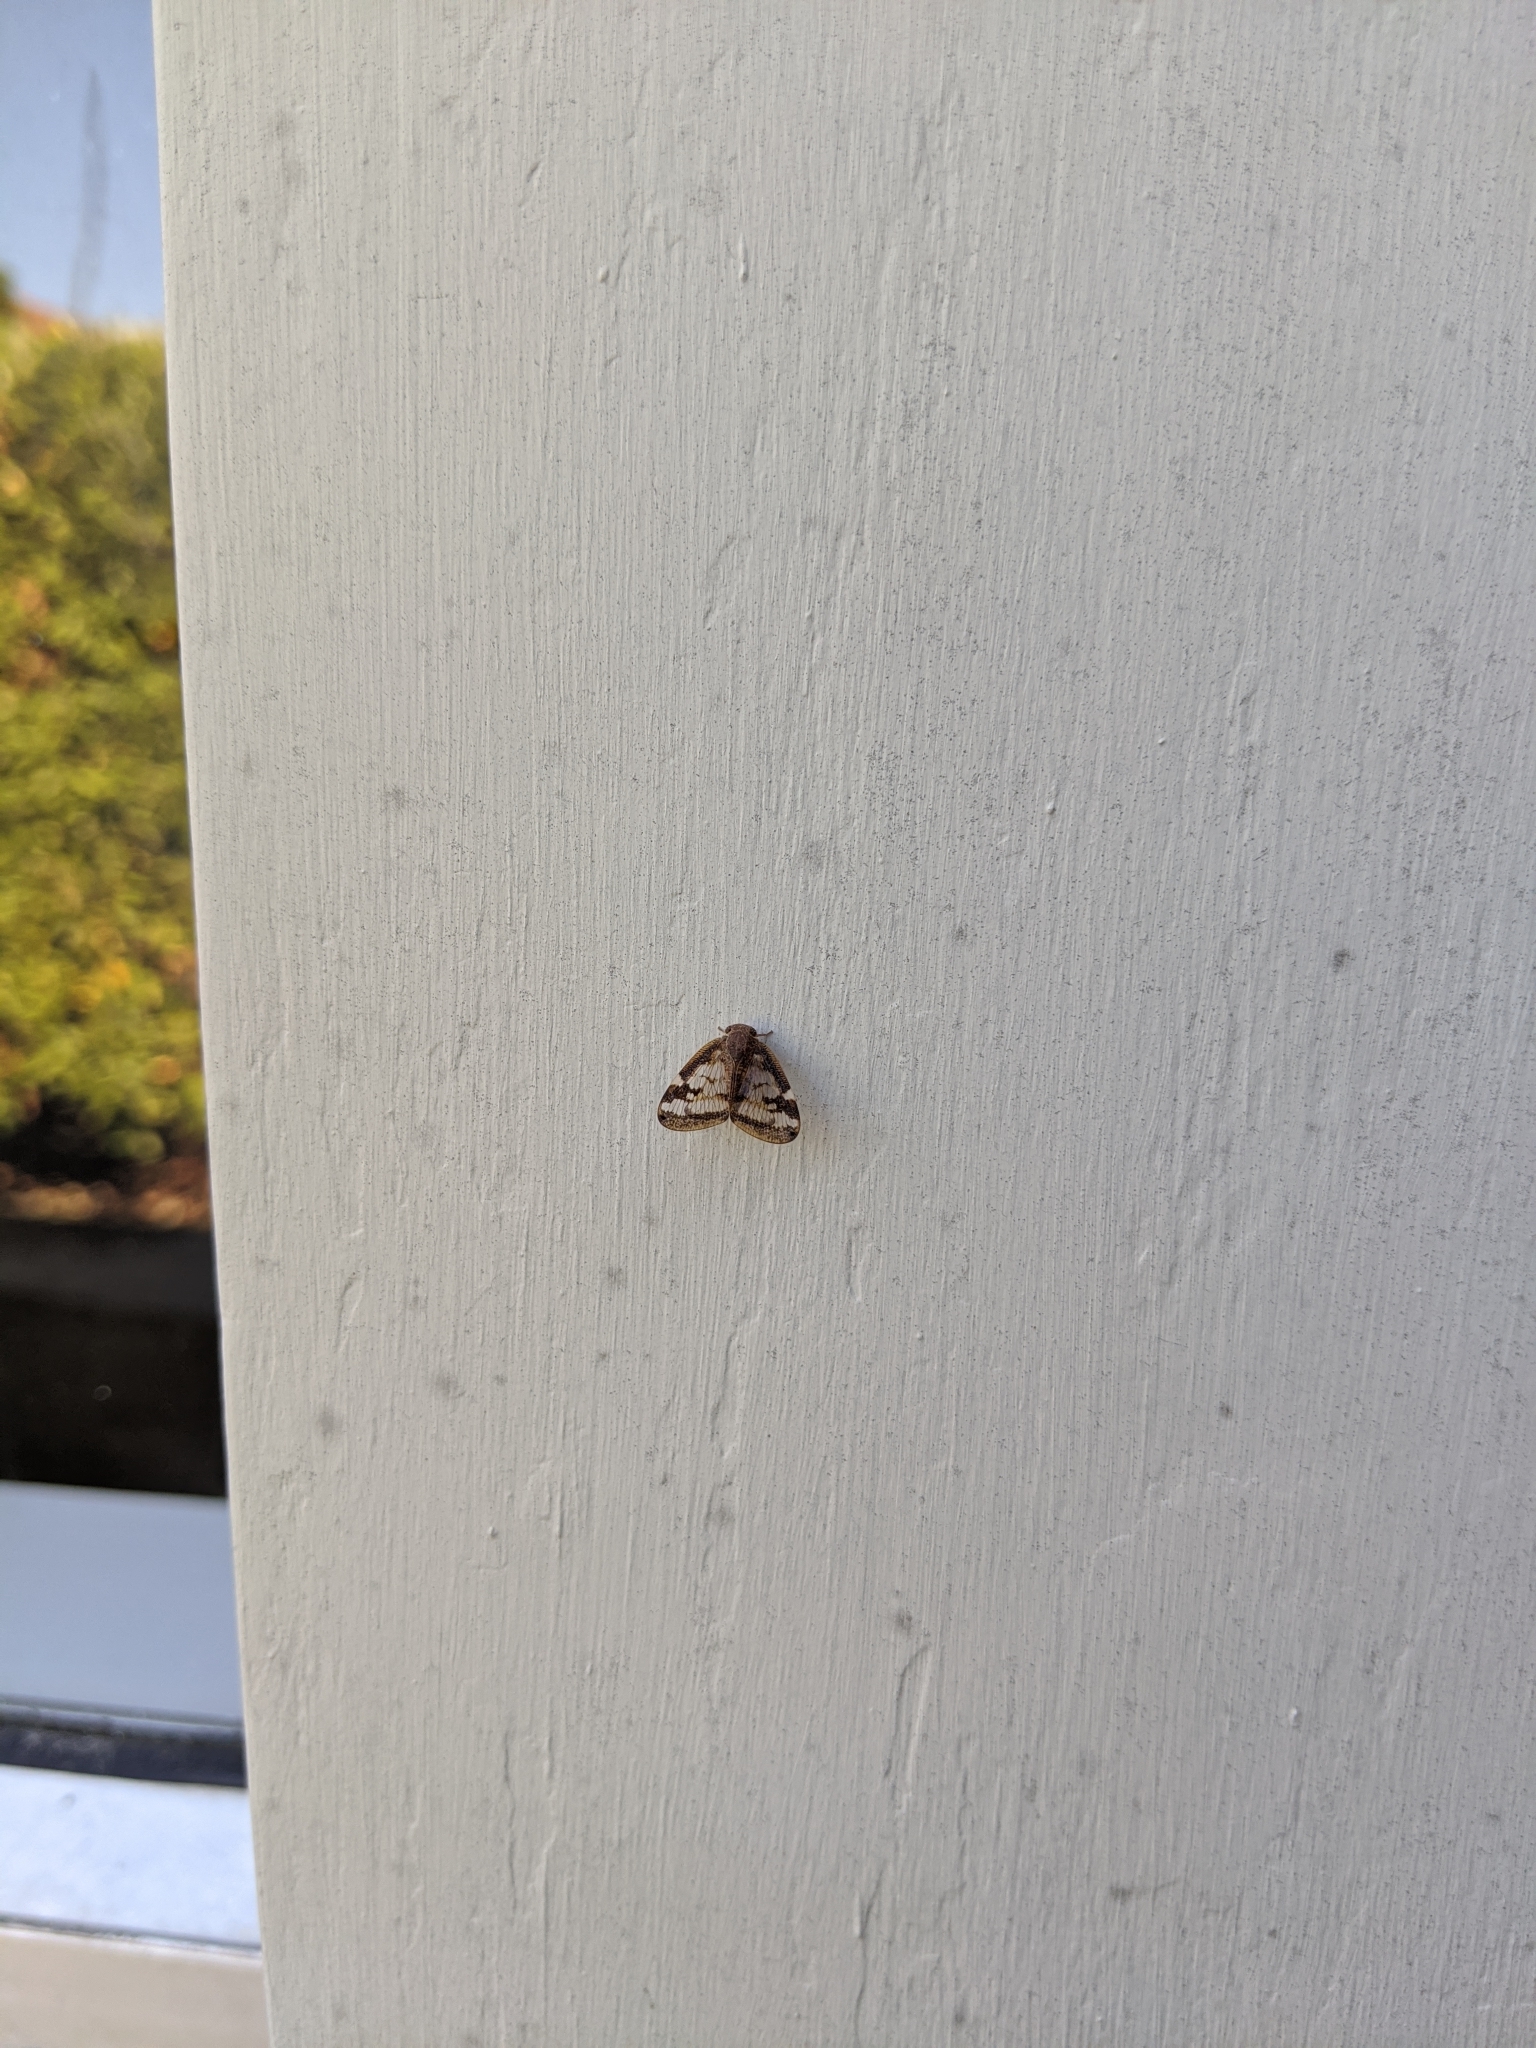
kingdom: Animalia
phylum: Arthropoda
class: Insecta
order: Hemiptera
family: Ricaniidae
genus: Scolypopa
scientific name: Scolypopa australis
